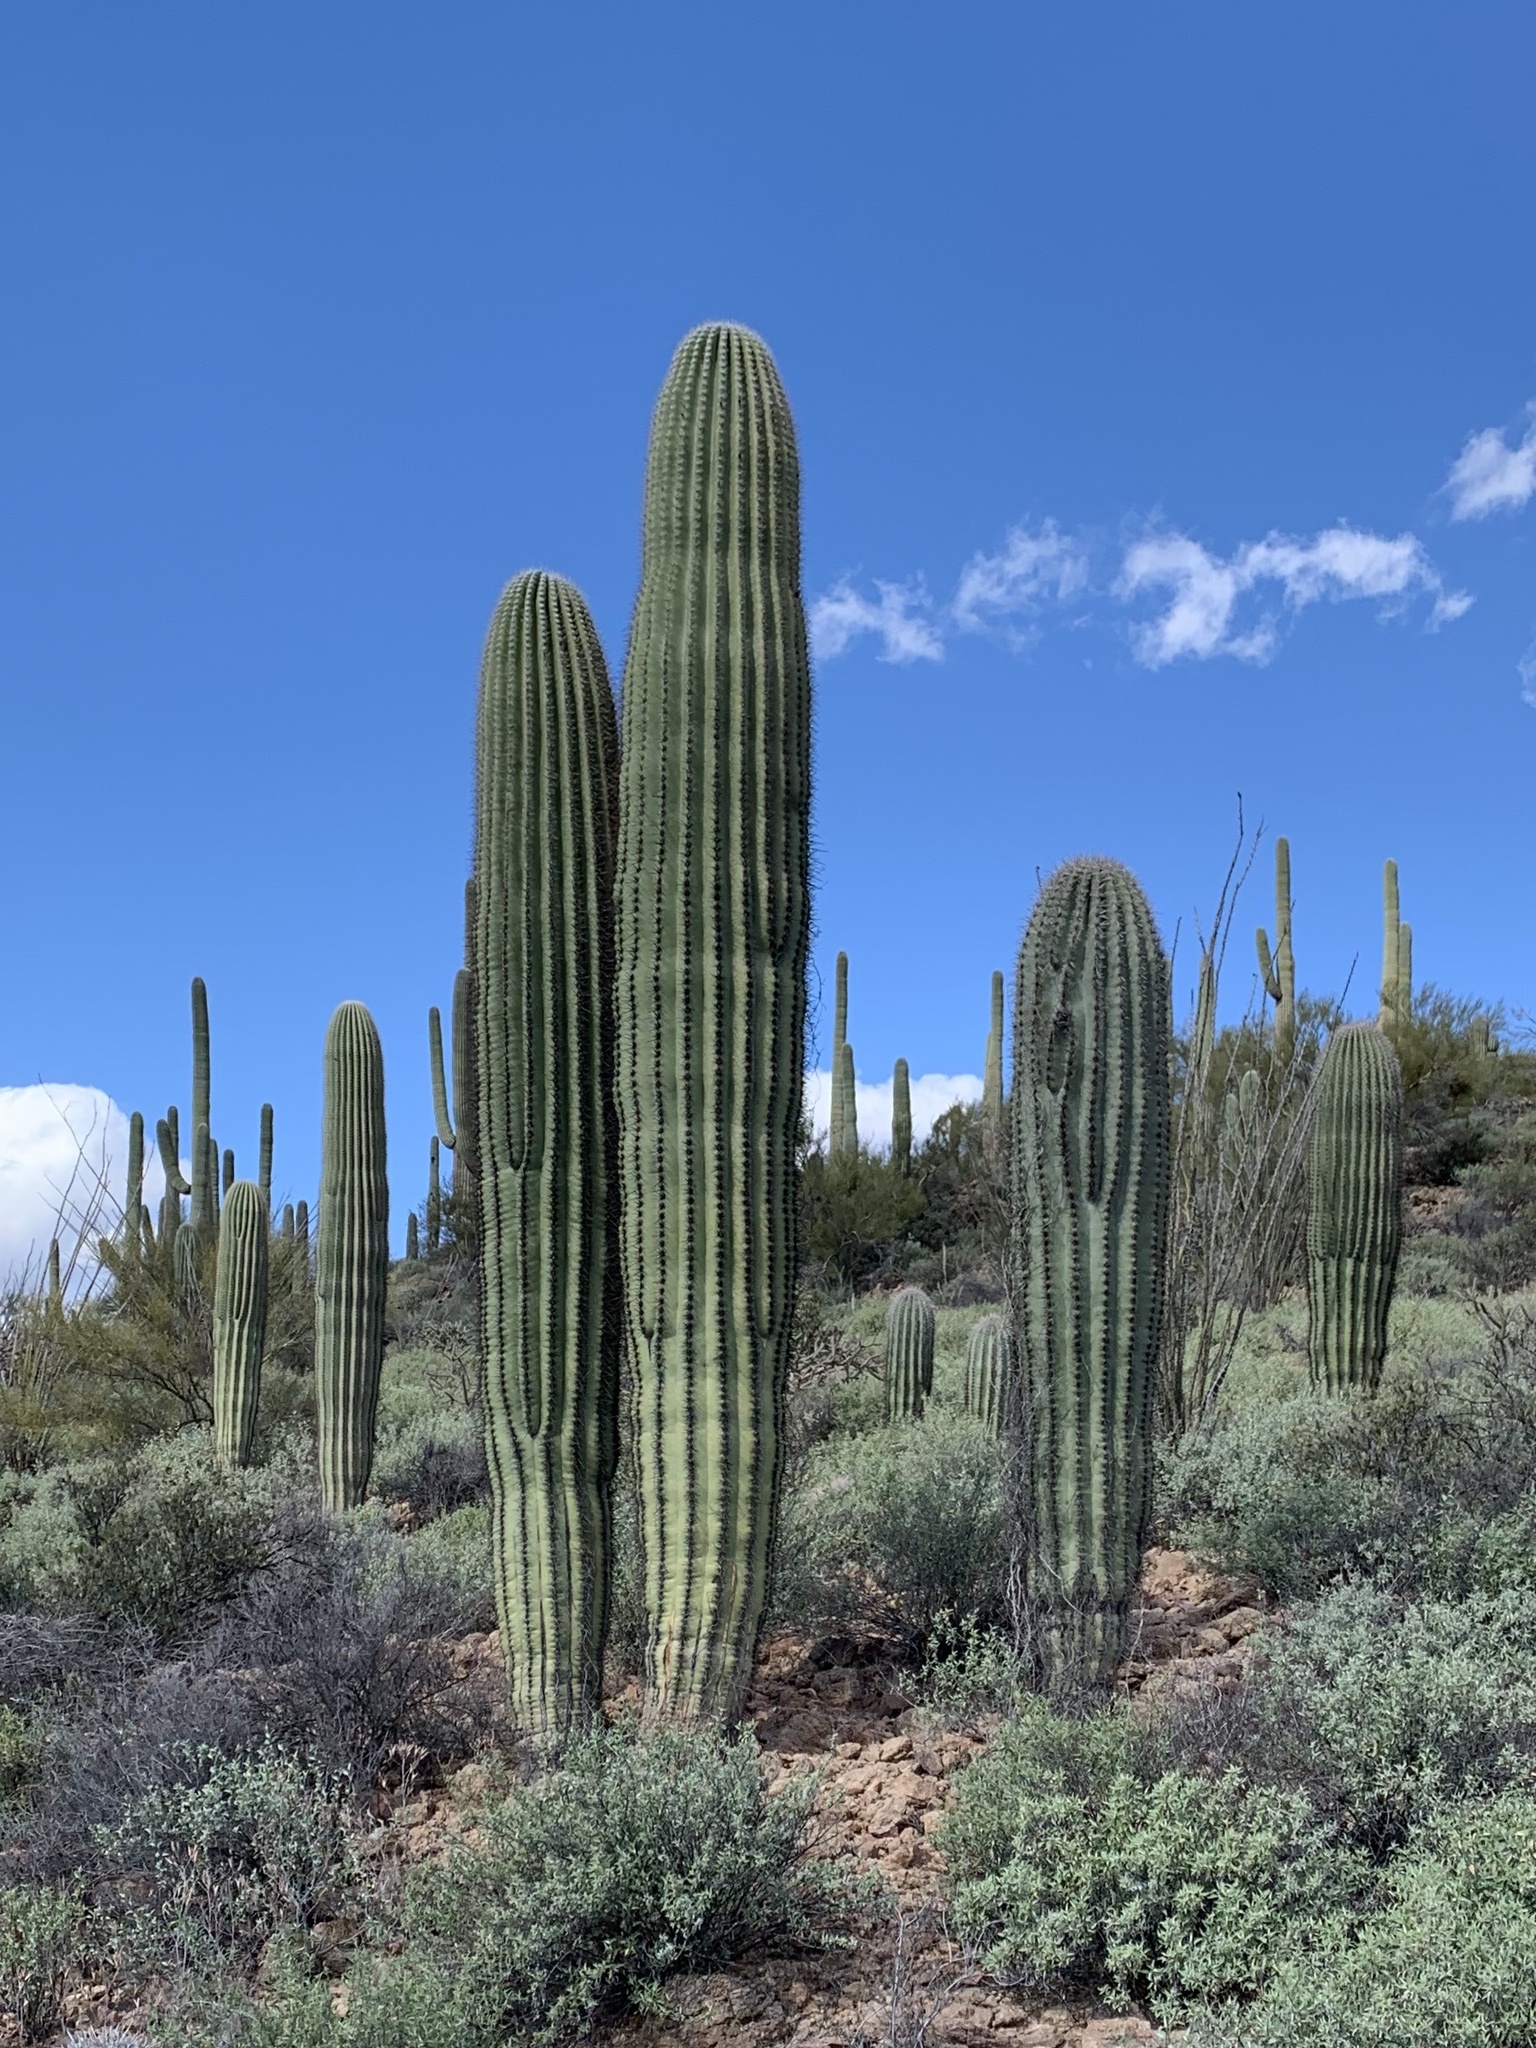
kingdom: Plantae
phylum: Tracheophyta
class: Magnoliopsida
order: Caryophyllales
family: Cactaceae
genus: Carnegiea
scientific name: Carnegiea gigantea
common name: Saguaro
